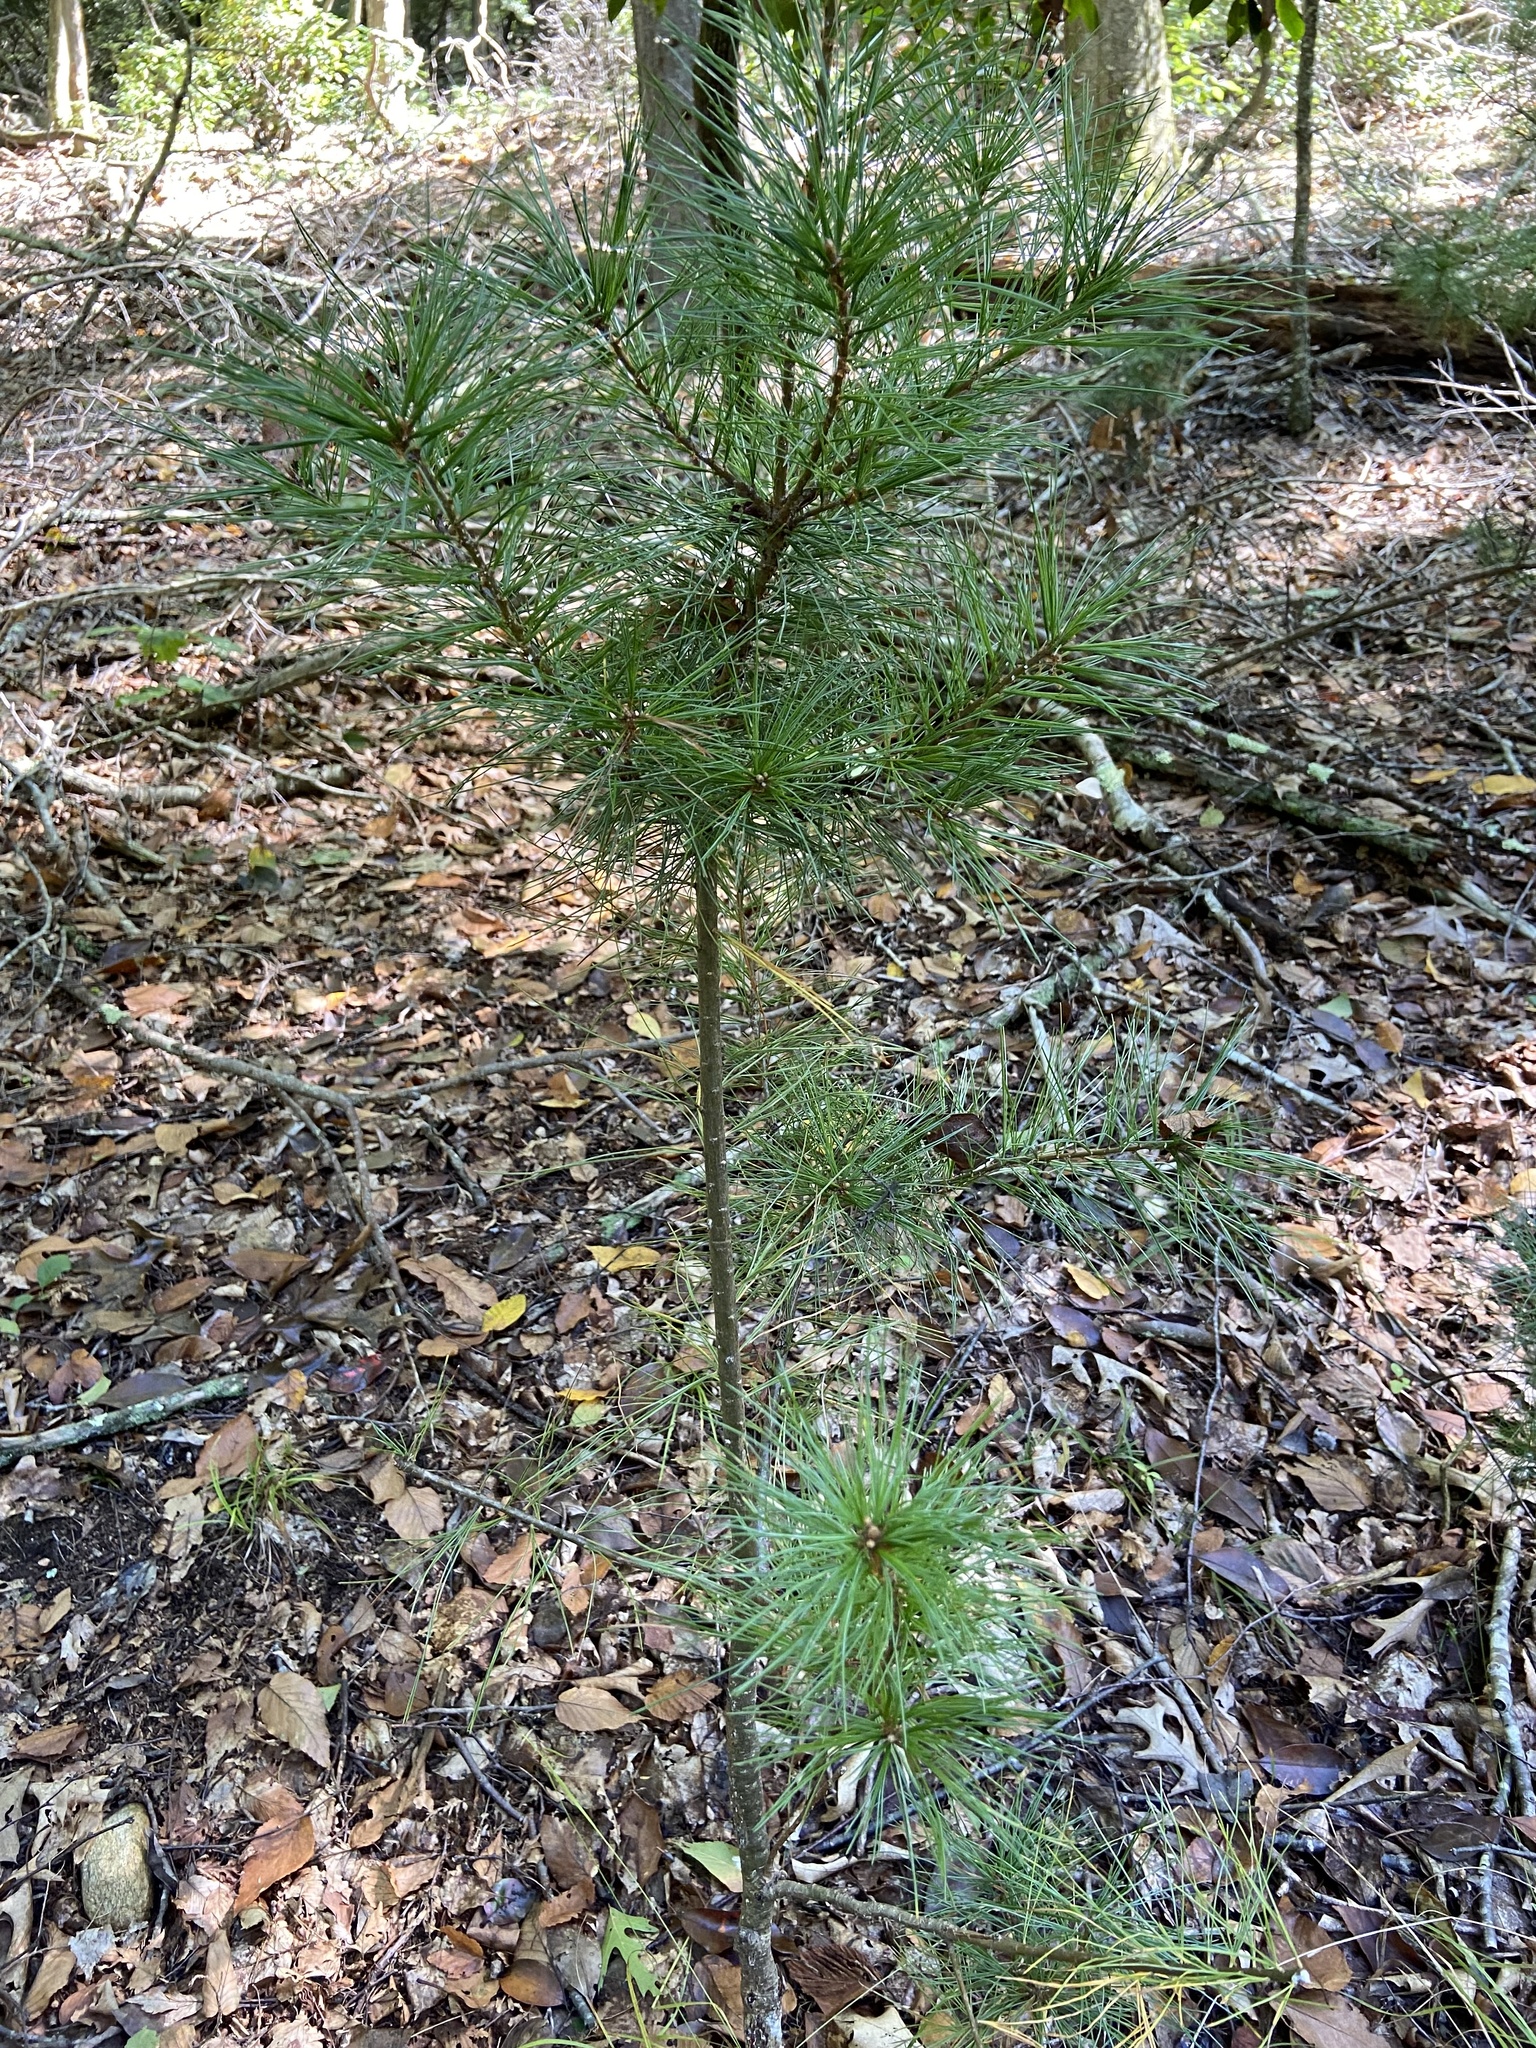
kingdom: Plantae
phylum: Tracheophyta
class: Pinopsida
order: Pinales
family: Pinaceae
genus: Pinus
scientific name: Pinus strobus
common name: Weymouth pine
